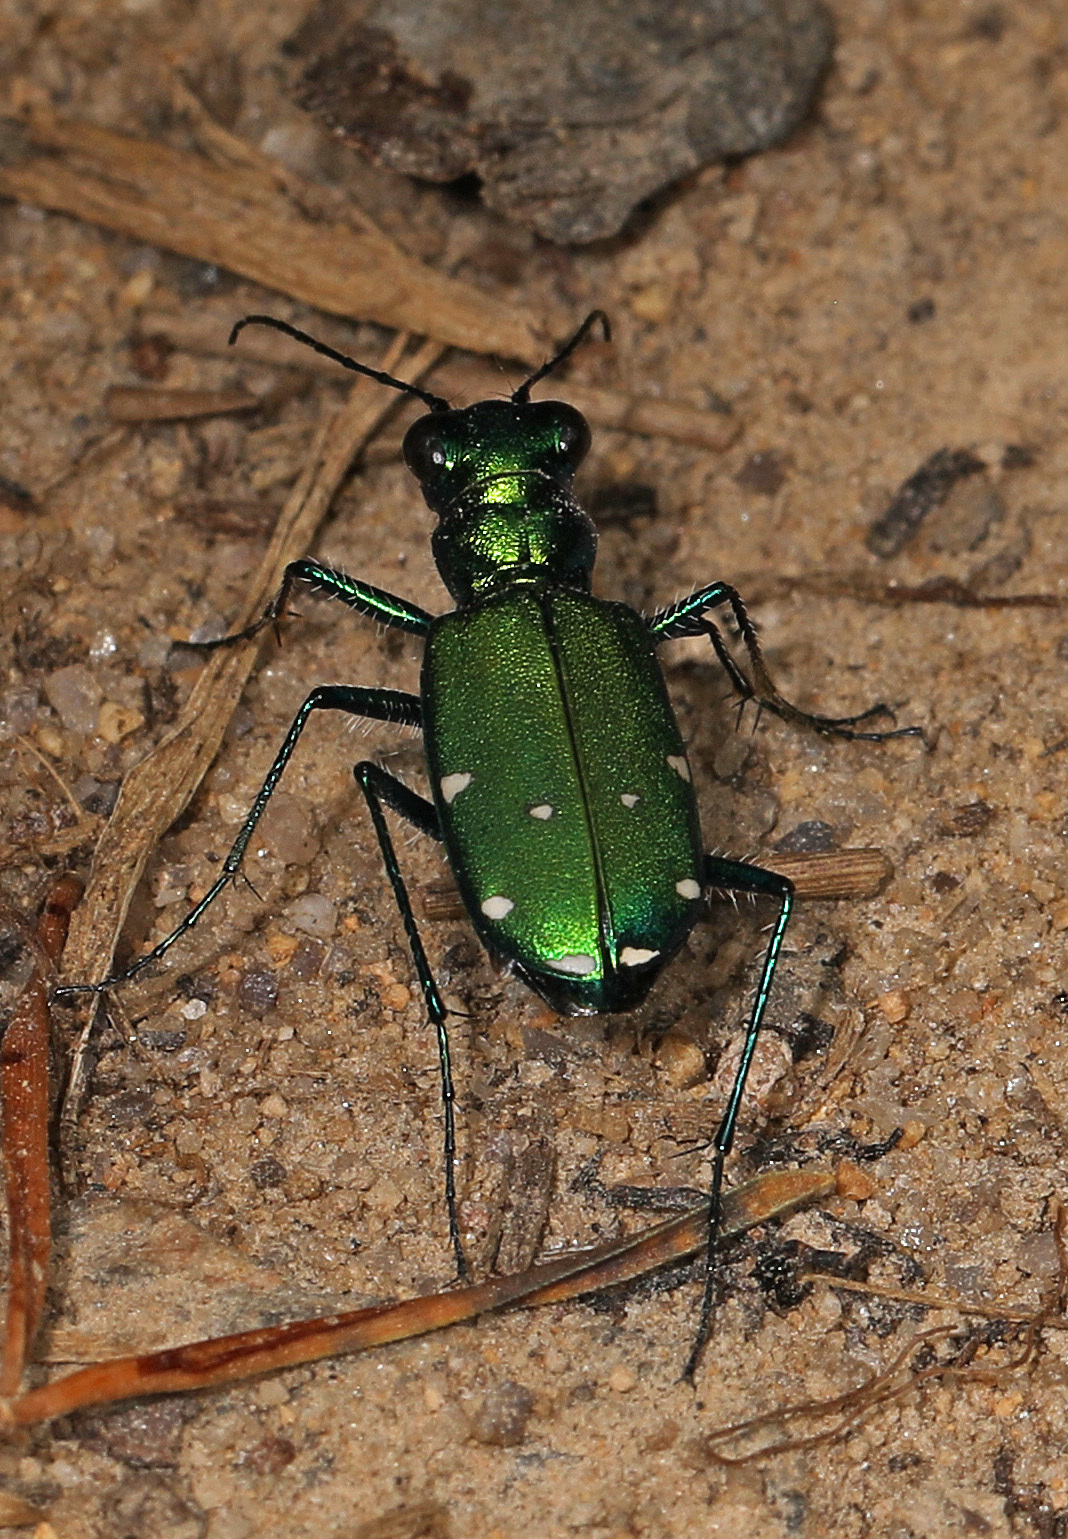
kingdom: Animalia
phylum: Arthropoda
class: Insecta
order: Coleoptera
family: Carabidae
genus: Cicindela
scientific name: Cicindela sexguttata
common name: Six-spotted tiger beetle
